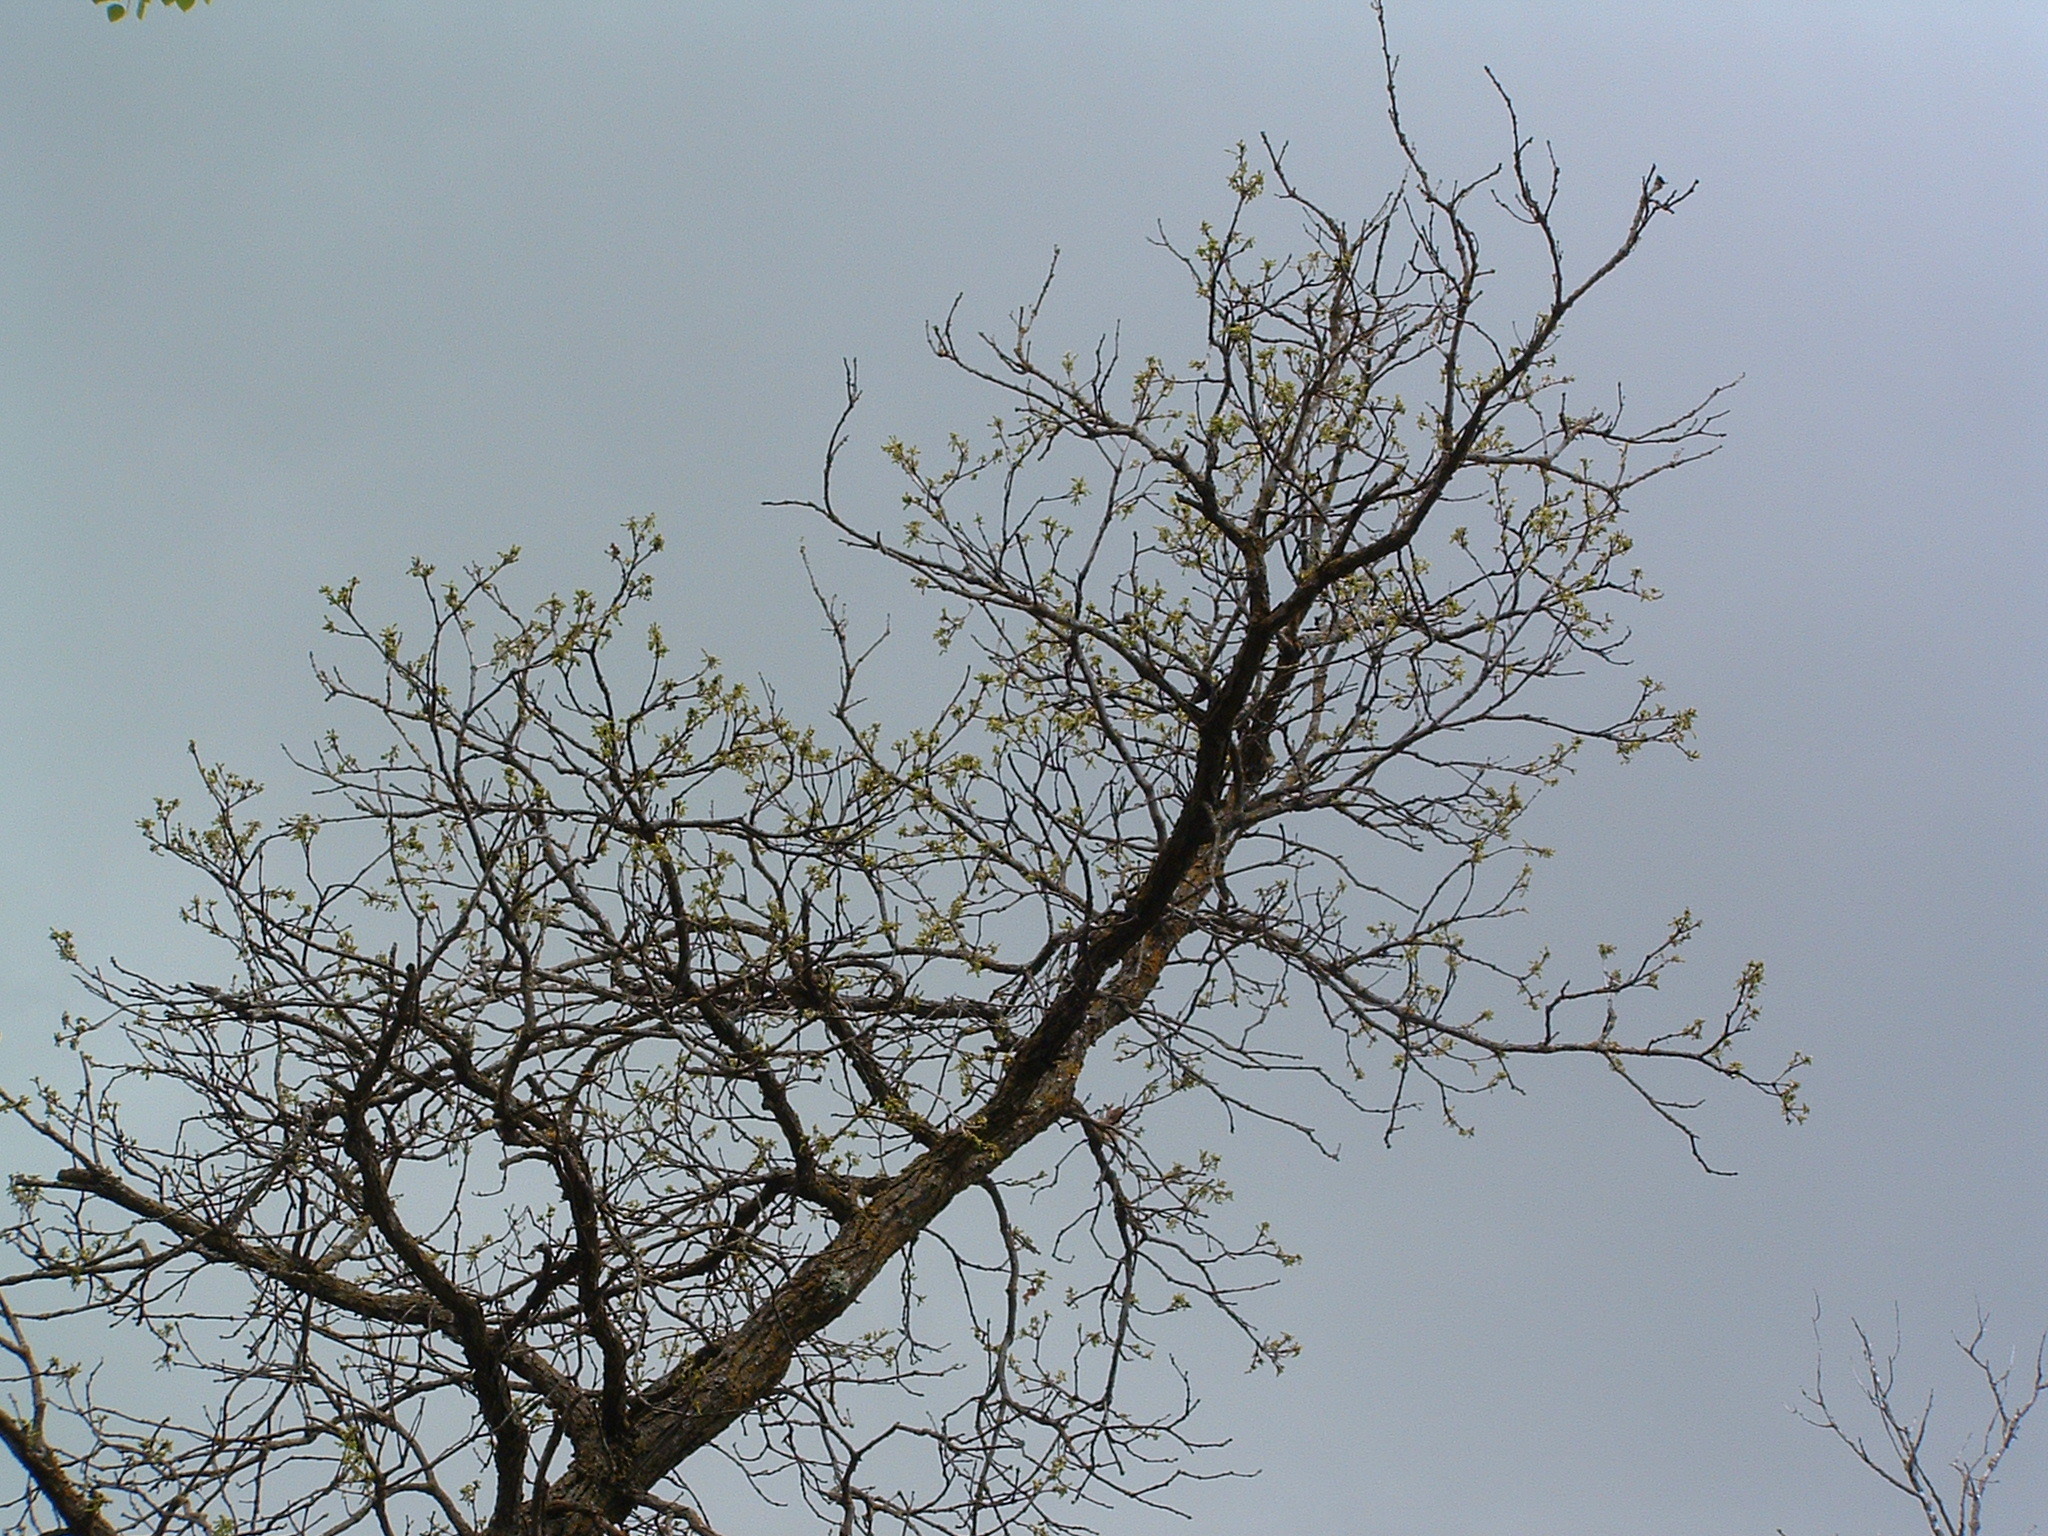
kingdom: Plantae
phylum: Tracheophyta
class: Magnoliopsida
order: Fagales
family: Fagaceae
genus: Quercus
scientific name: Quercus macrocarpa
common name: Bur oak
